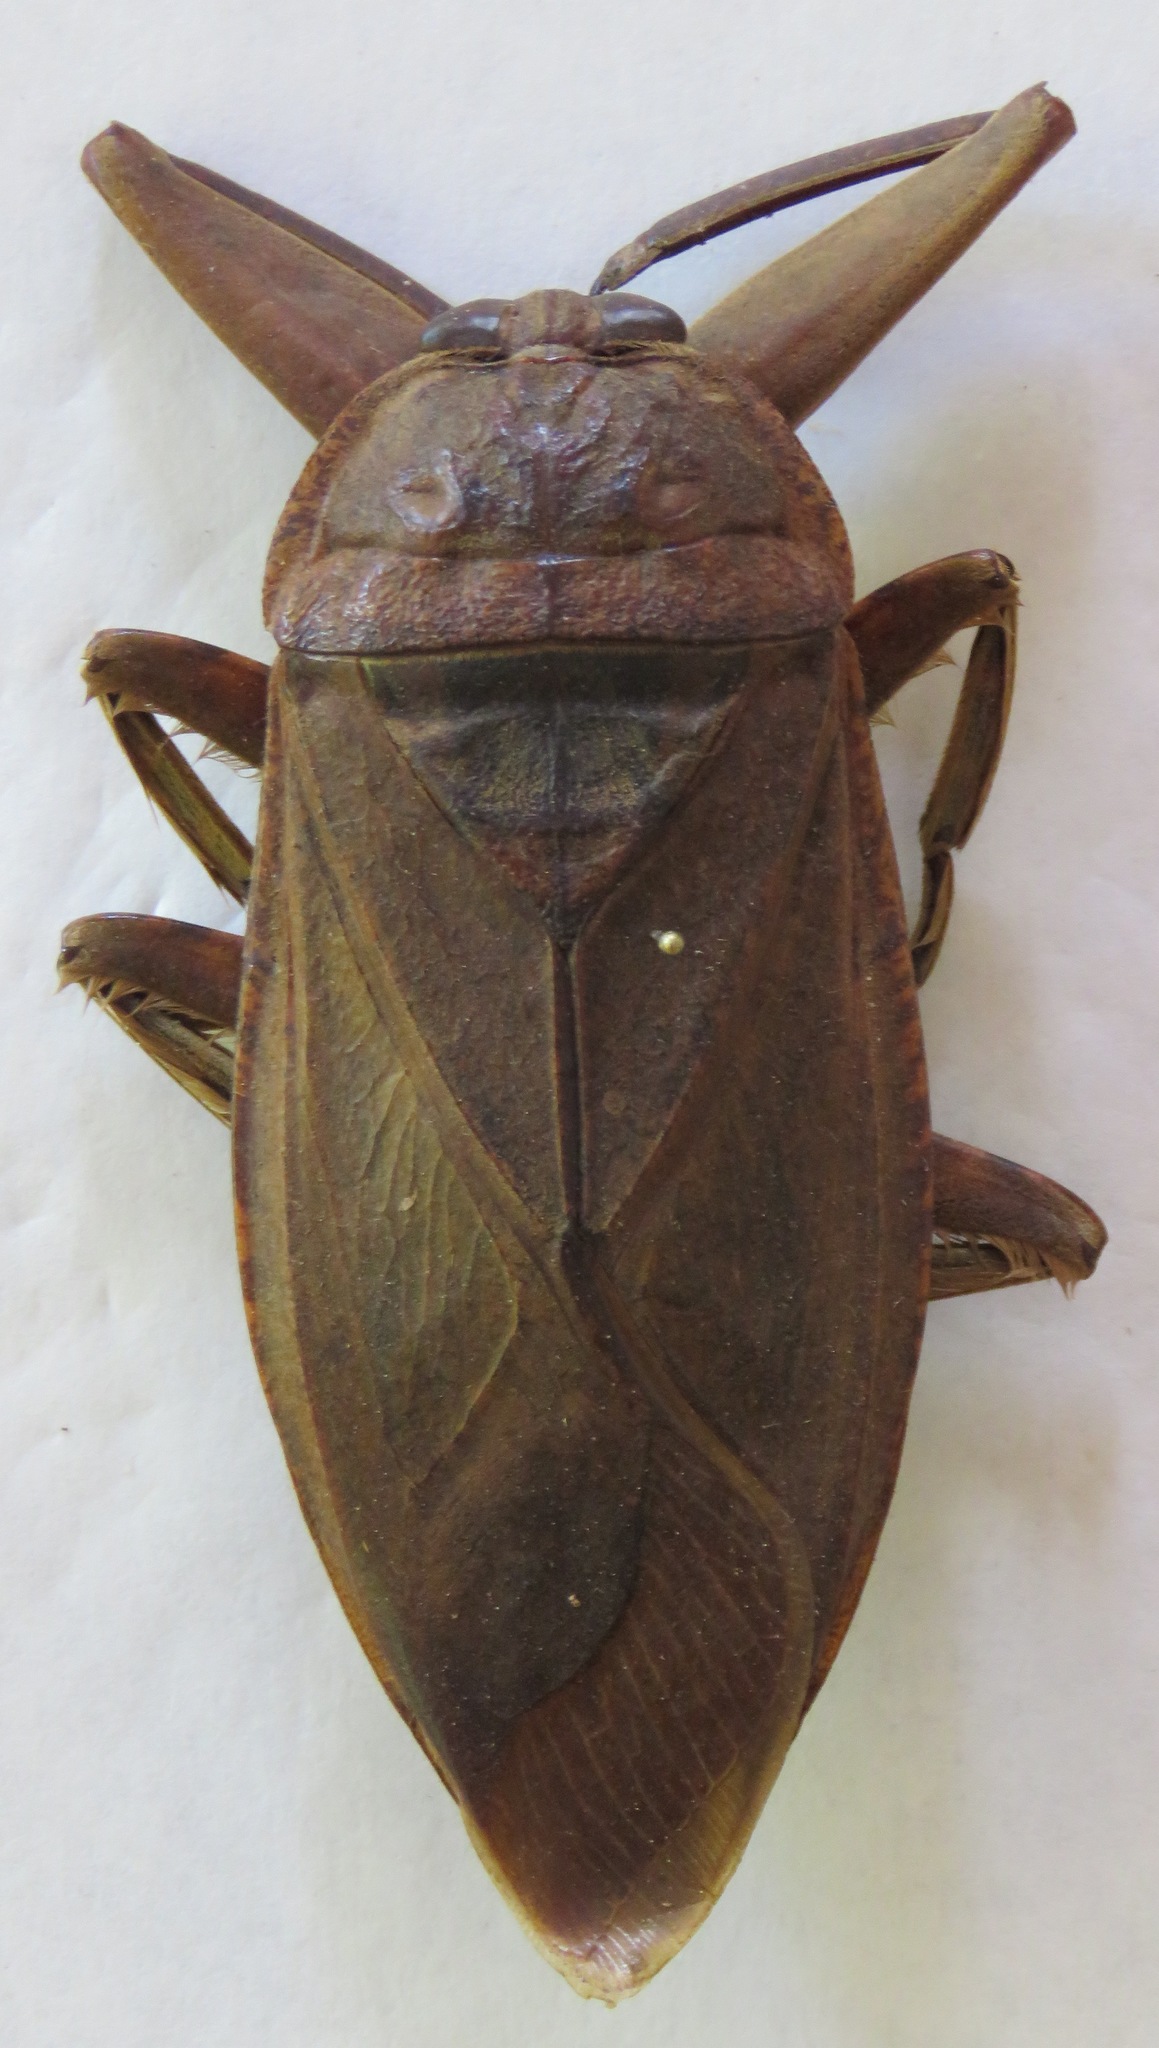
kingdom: Animalia
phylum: Arthropoda
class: Insecta
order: Hemiptera
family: Belostomatidae
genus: Lethocerus
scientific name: Lethocerus collossicus
